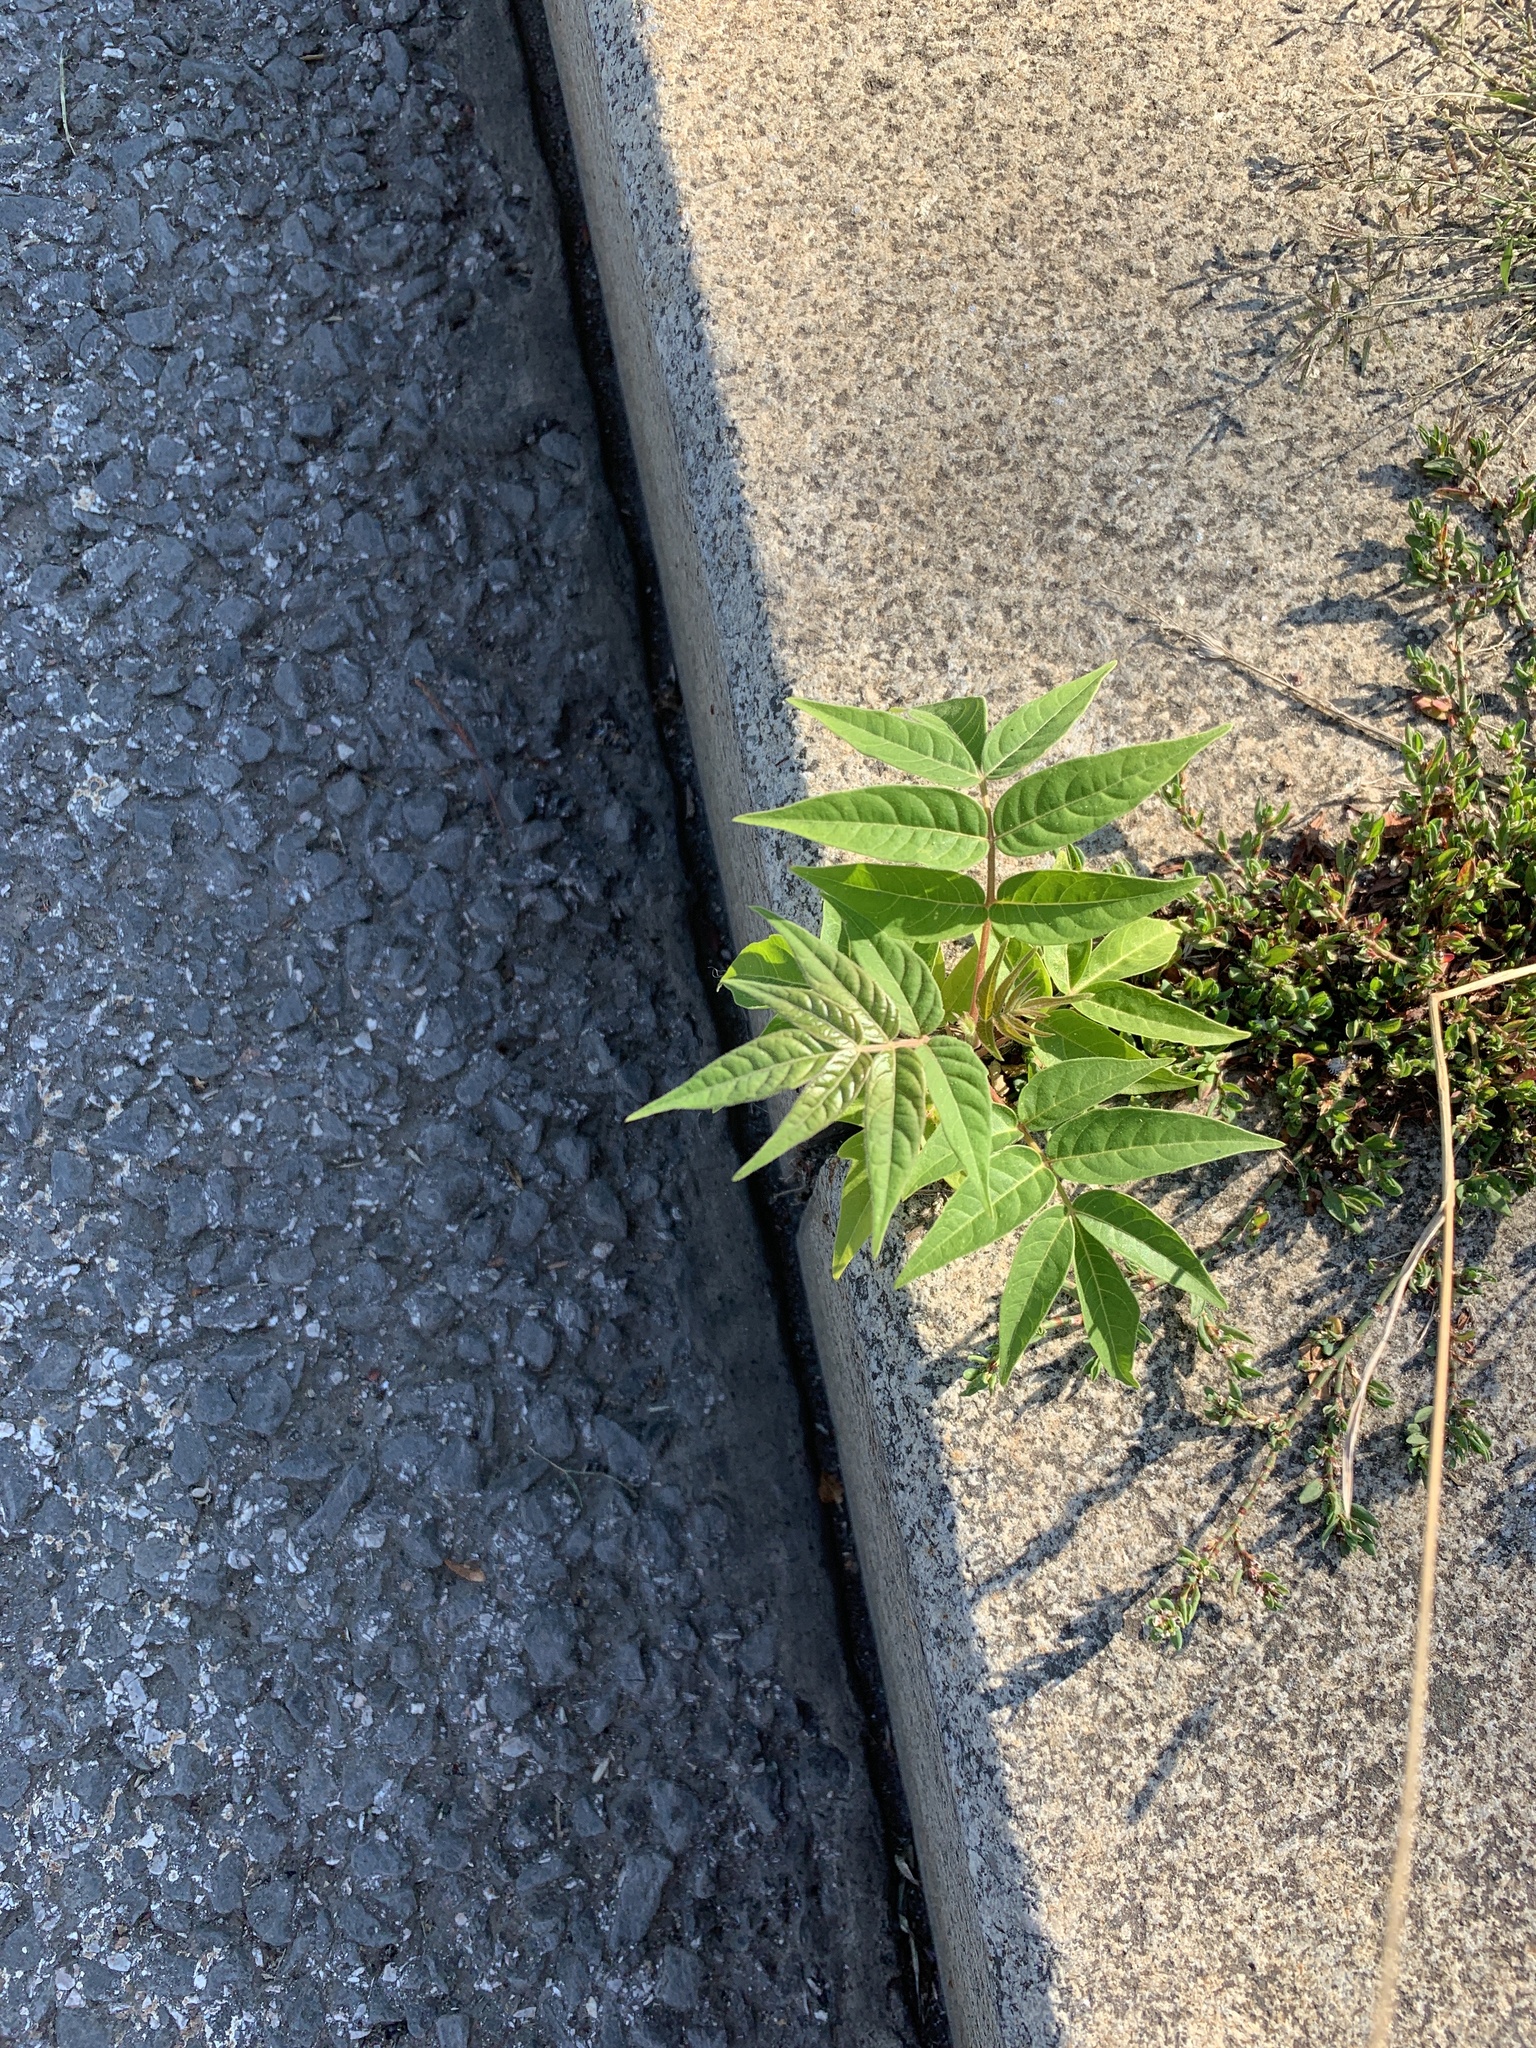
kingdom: Plantae
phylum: Tracheophyta
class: Magnoliopsida
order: Sapindales
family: Simaroubaceae
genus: Ailanthus
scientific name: Ailanthus altissima
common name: Tree-of-heaven
